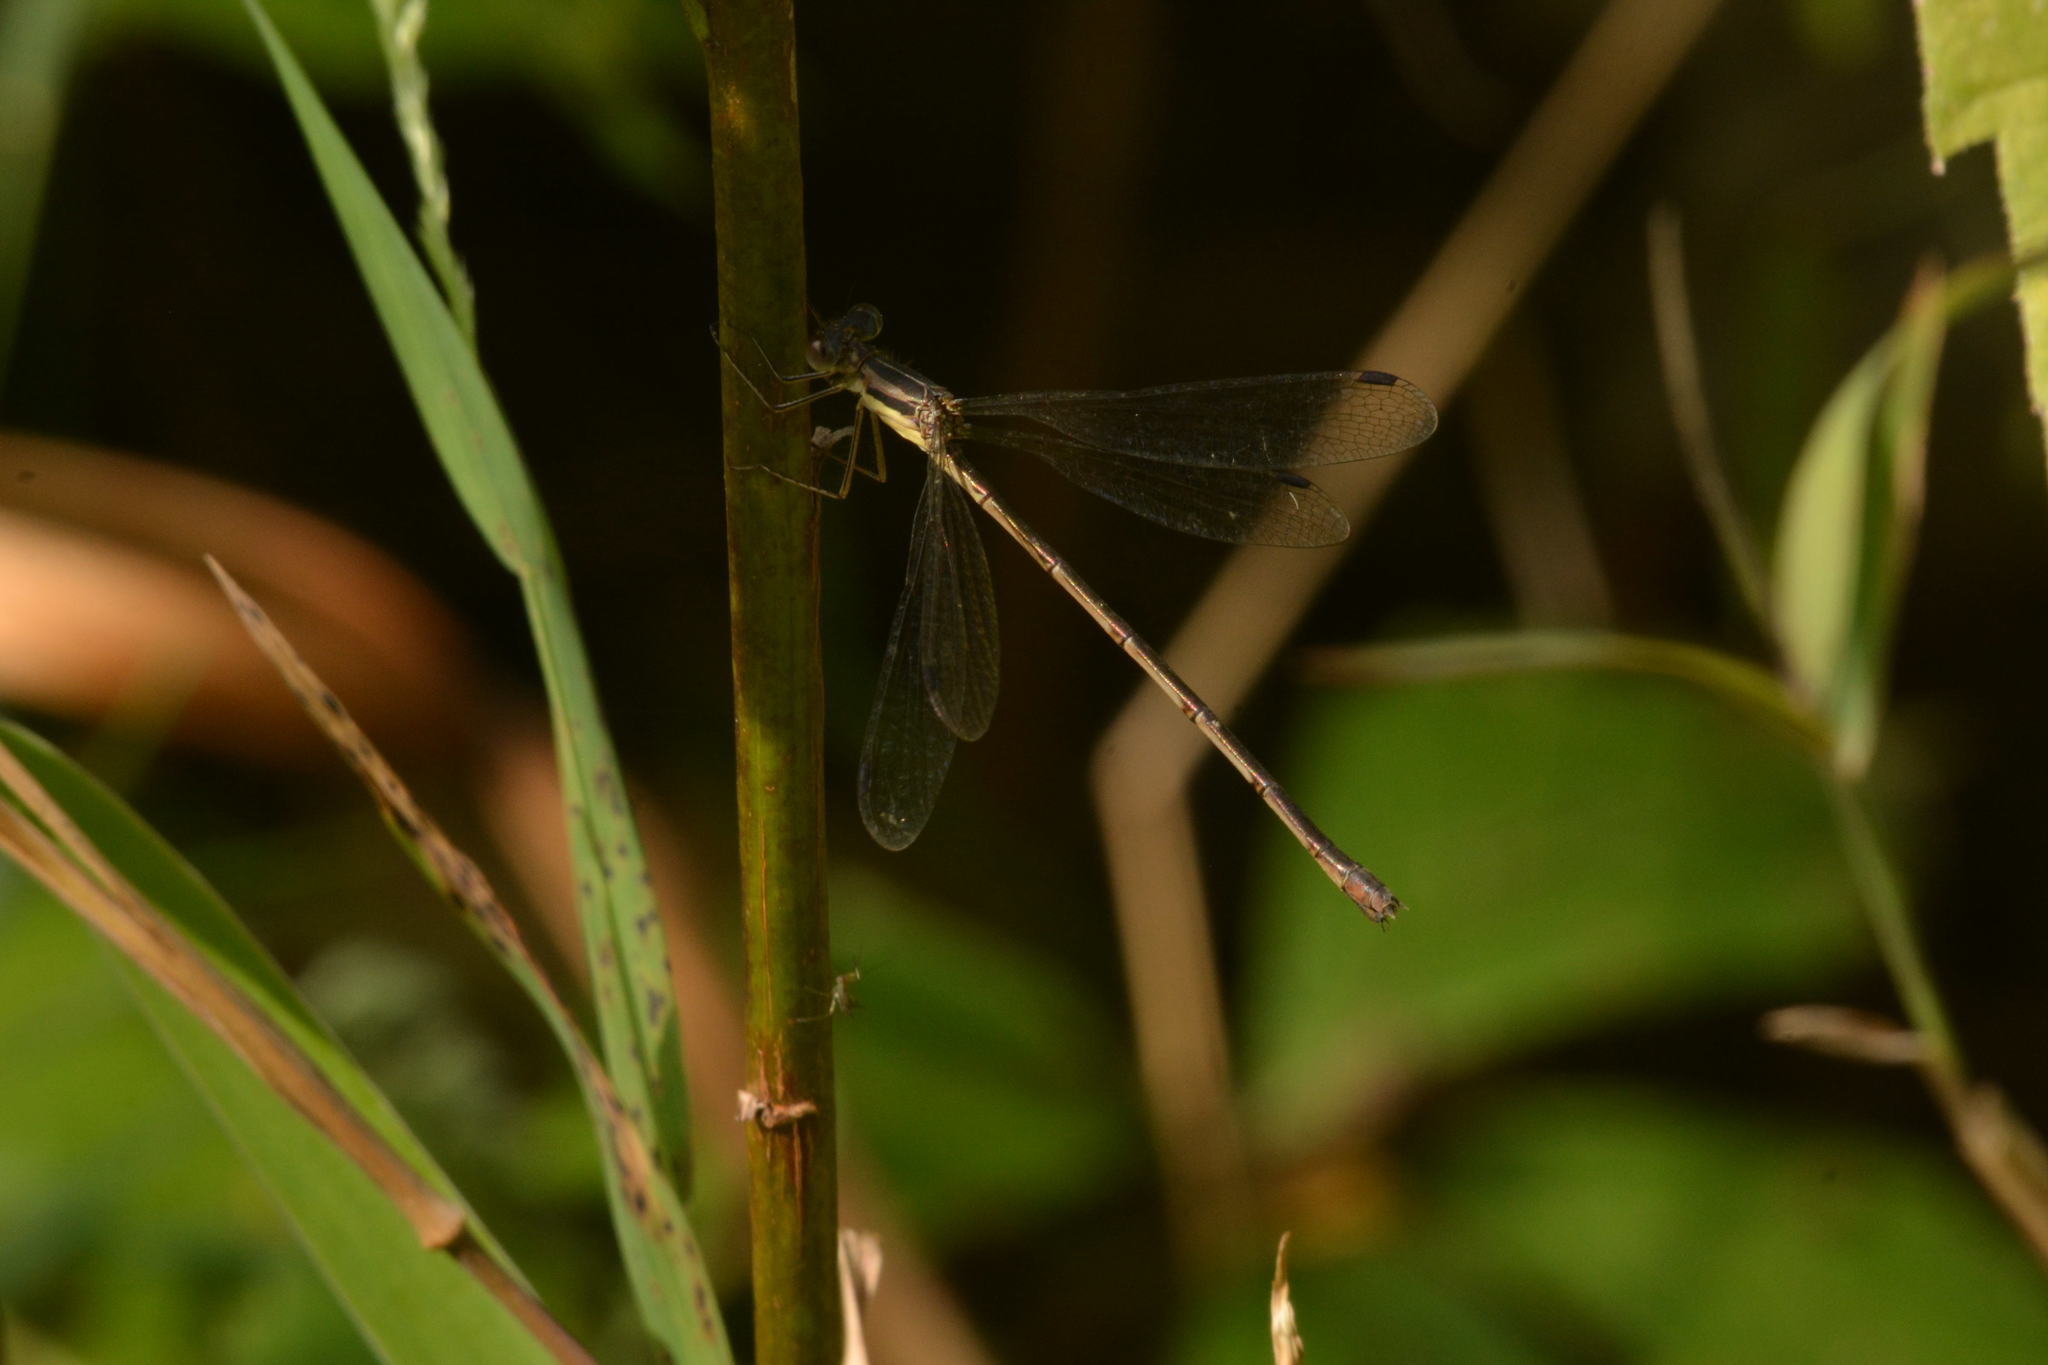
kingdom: Animalia
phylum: Arthropoda
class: Insecta
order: Odonata
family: Lestidae
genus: Lestes
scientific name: Lestes rectangularis
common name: Slender spreadwing
